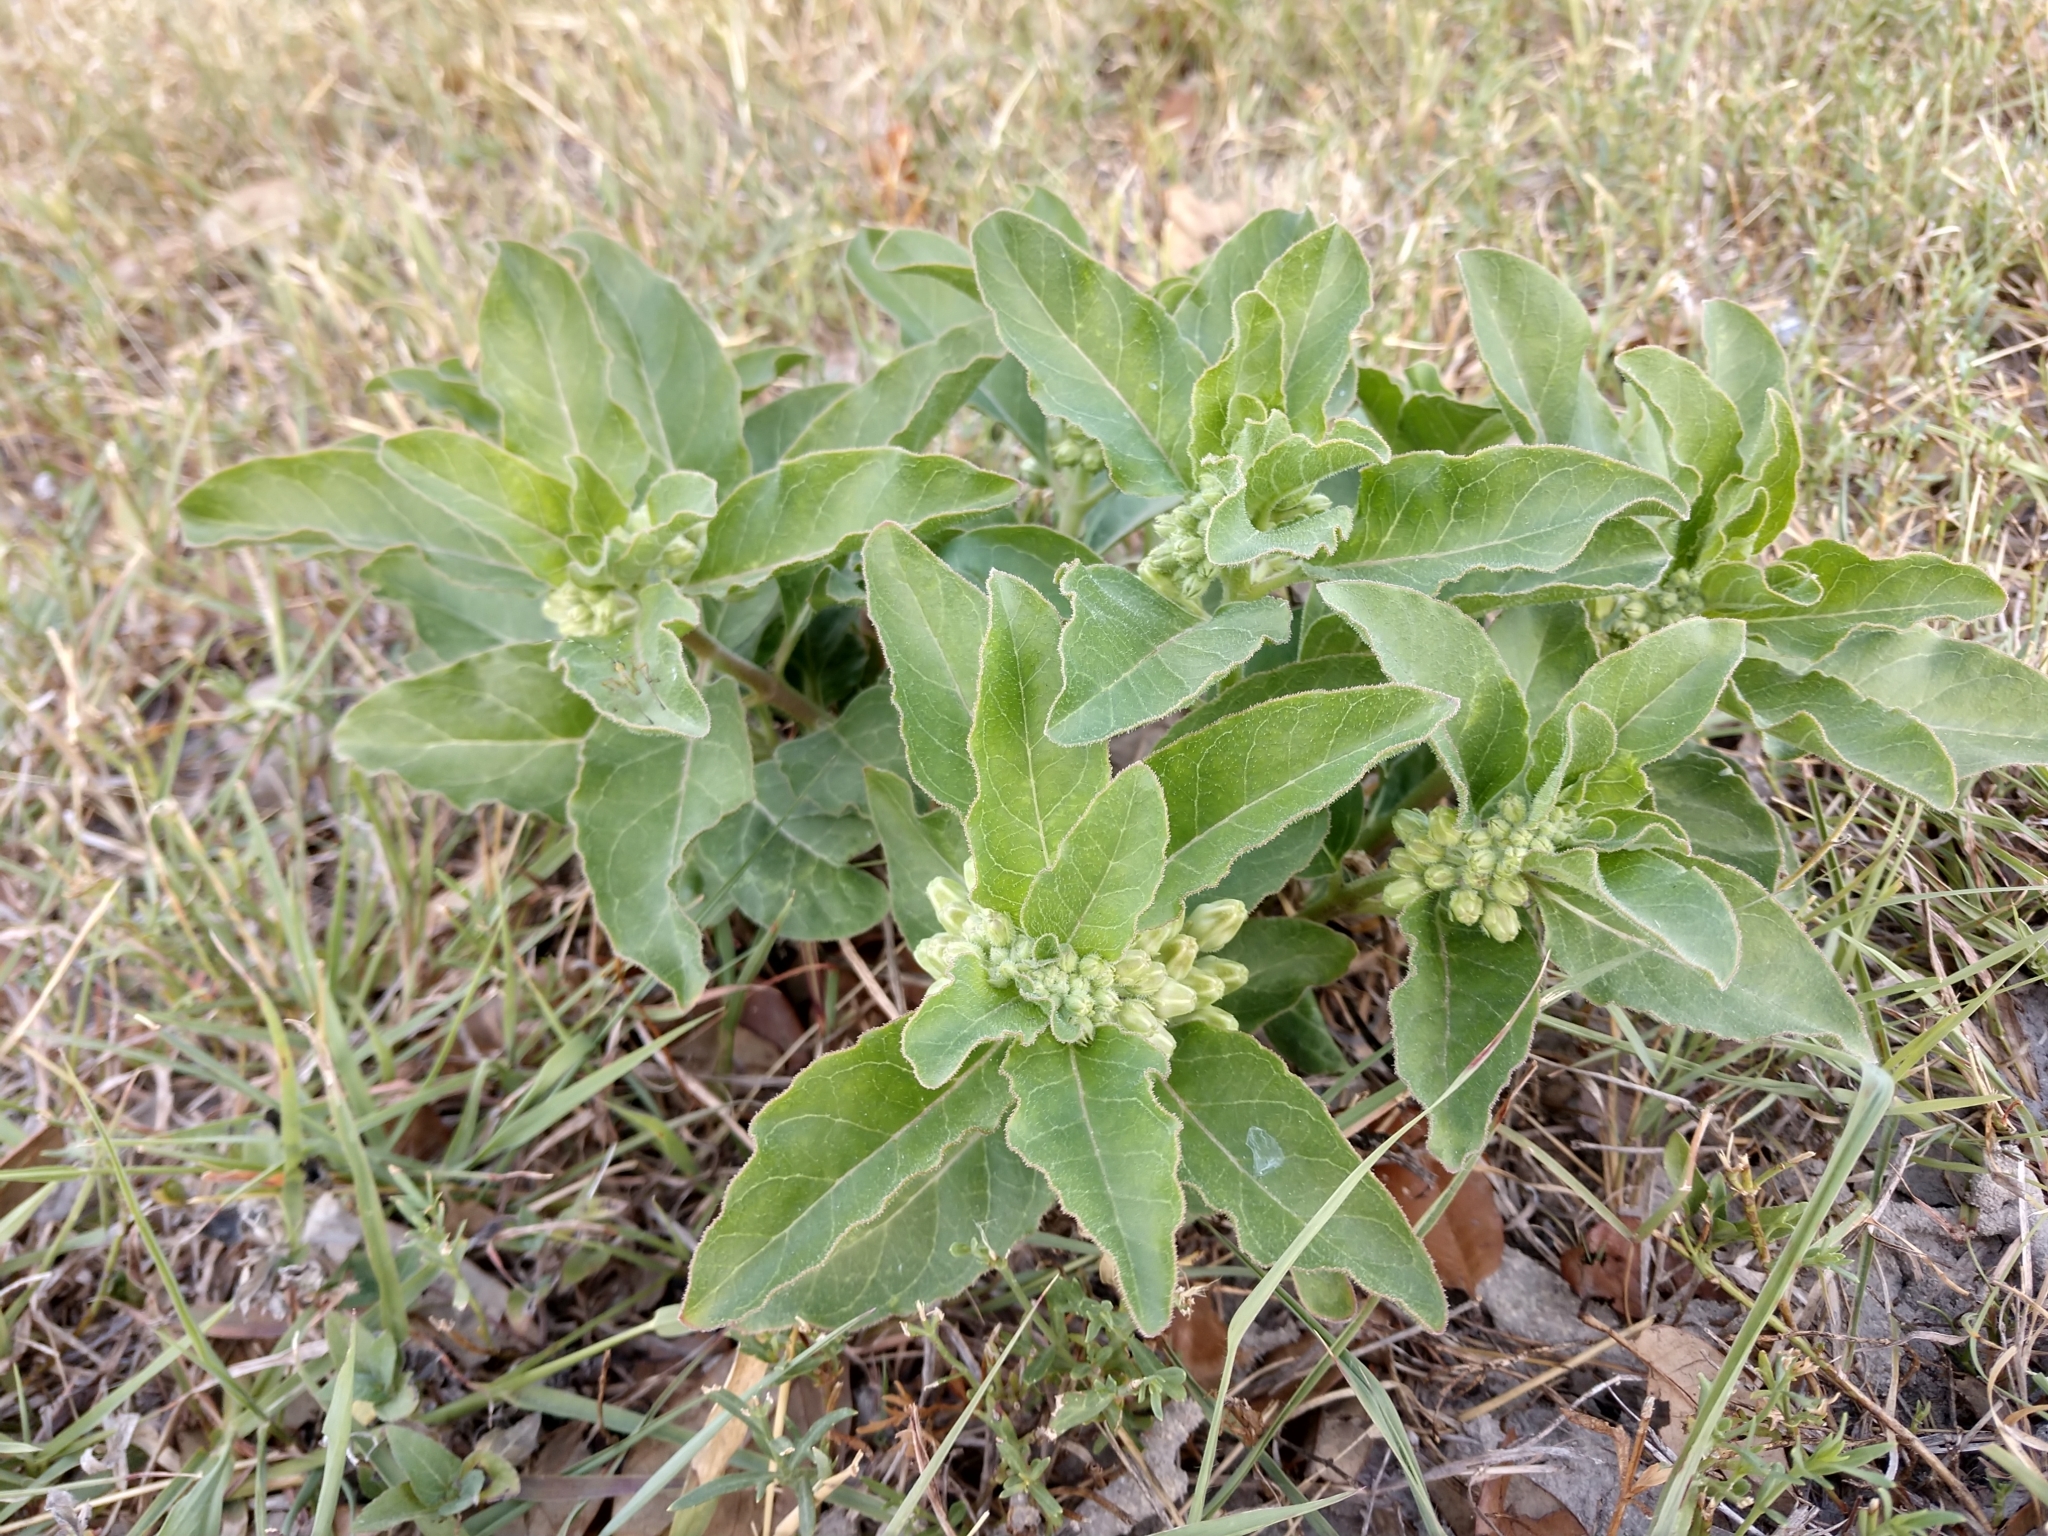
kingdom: Plantae
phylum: Tracheophyta
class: Magnoliopsida
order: Gentianales
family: Apocynaceae
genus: Asclepias
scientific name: Asclepias oenotheroides
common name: Zizotes milkweed
